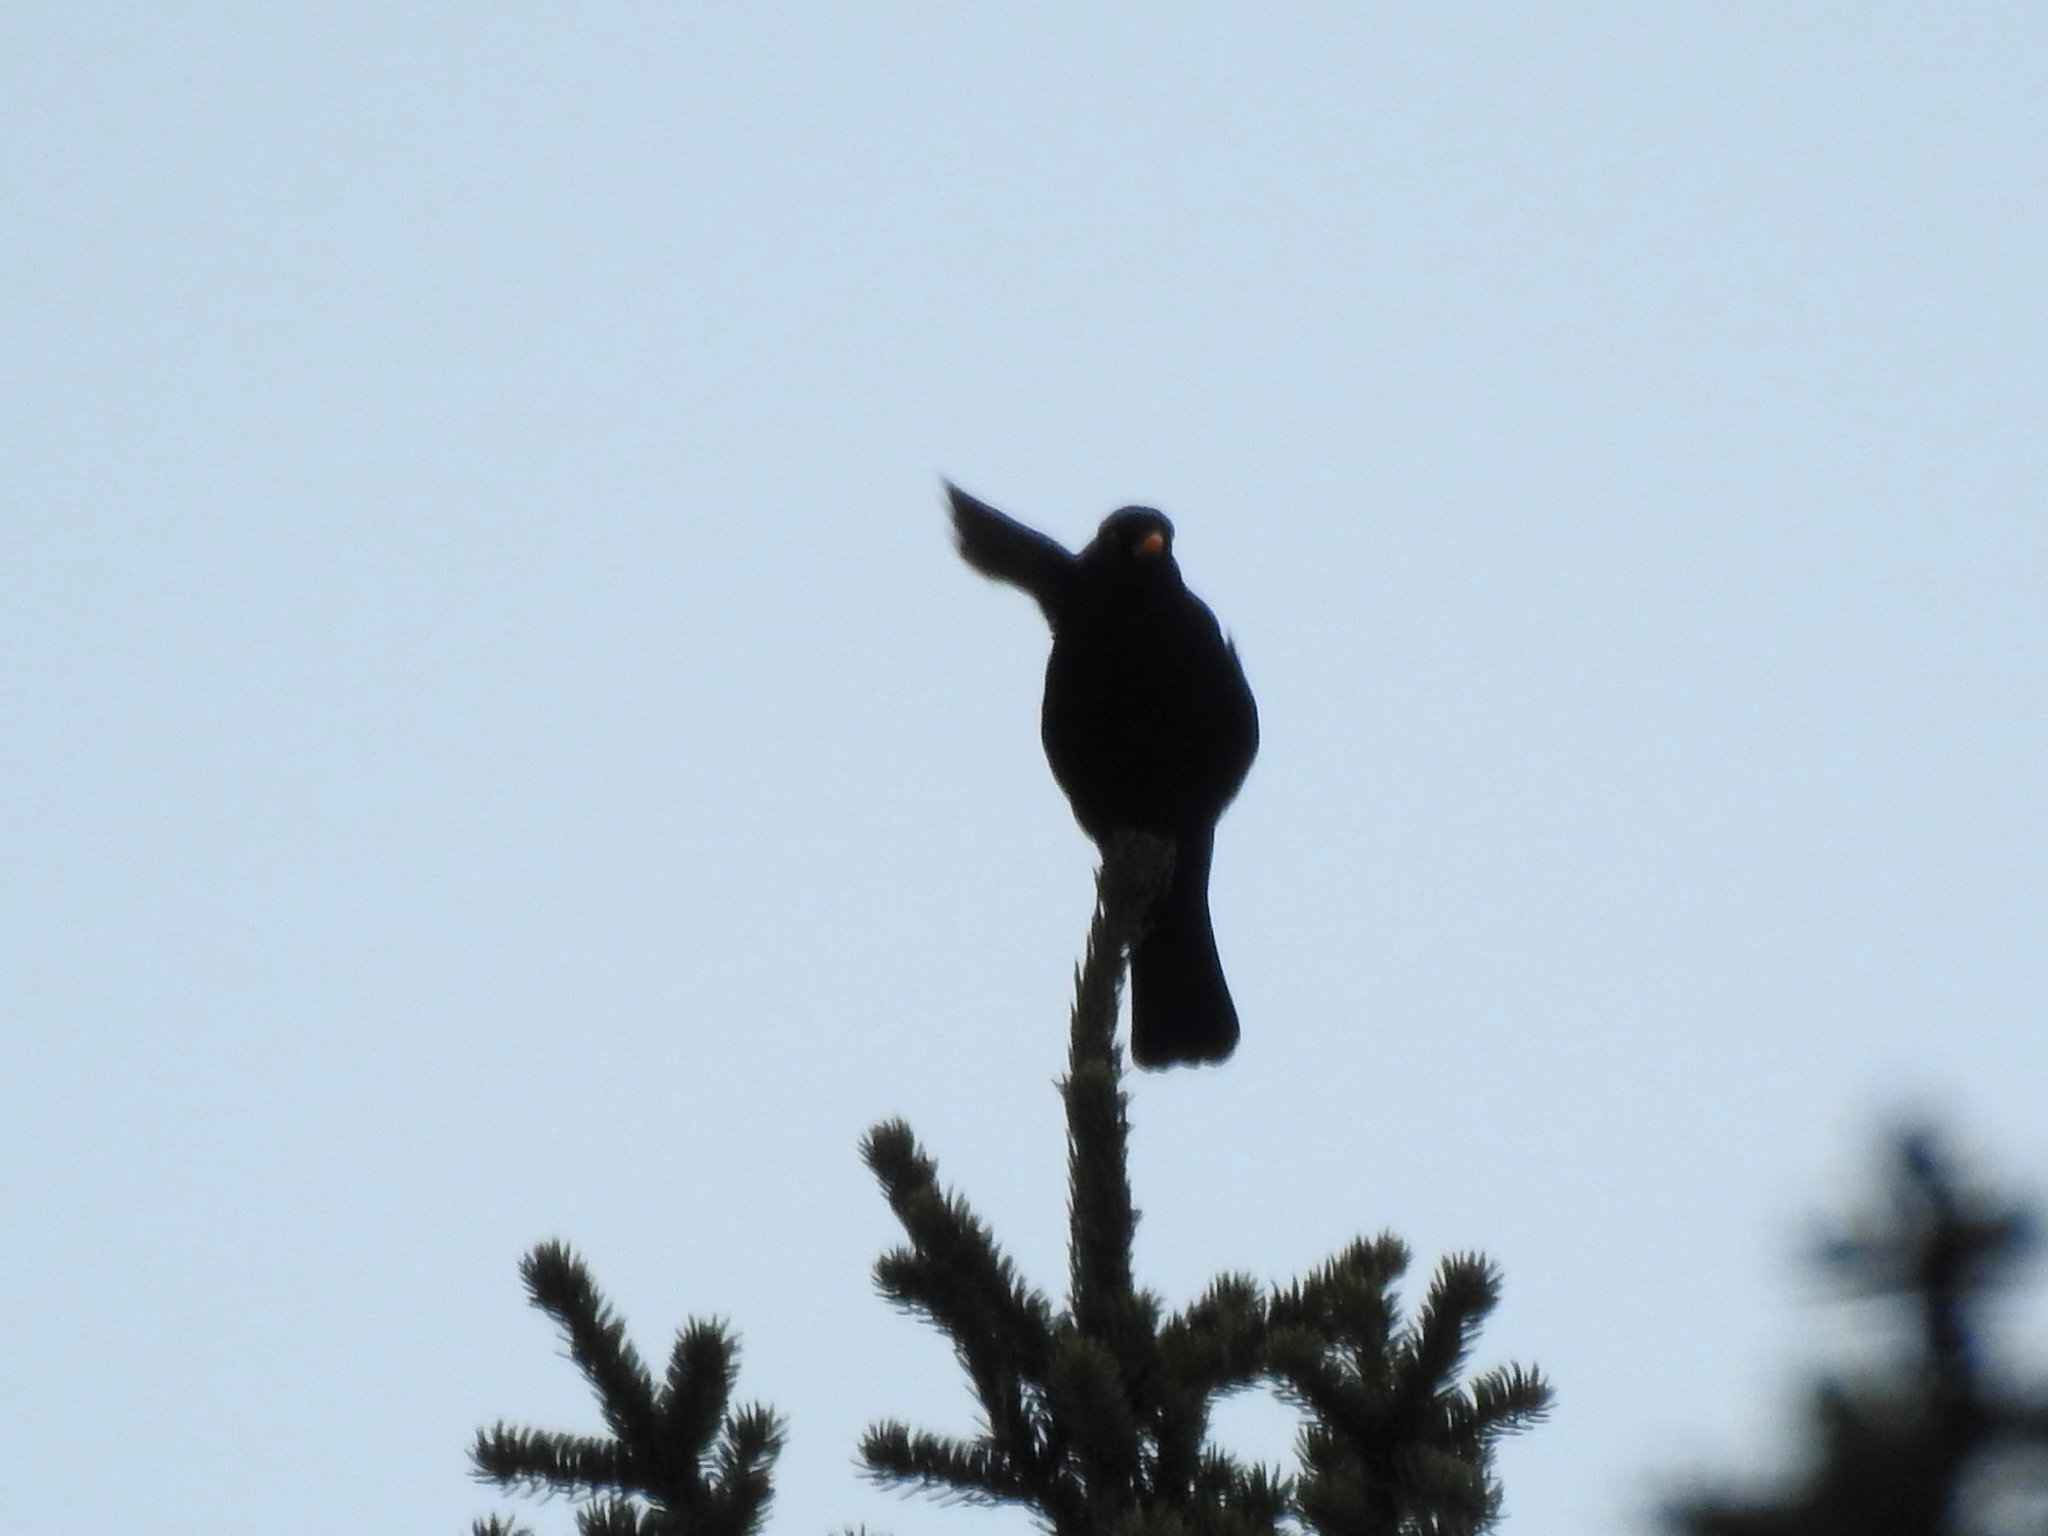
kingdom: Animalia
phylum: Chordata
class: Aves
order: Passeriformes
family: Turdidae
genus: Turdus
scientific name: Turdus merula
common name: Common blackbird
